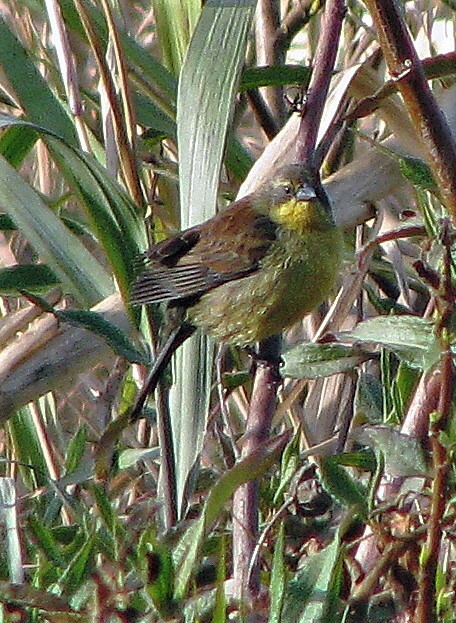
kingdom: Animalia
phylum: Chordata
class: Aves
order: Passeriformes
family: Icteridae
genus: Agelasticus
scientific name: Agelasticus cyanopus
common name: Unicolored blackbird
